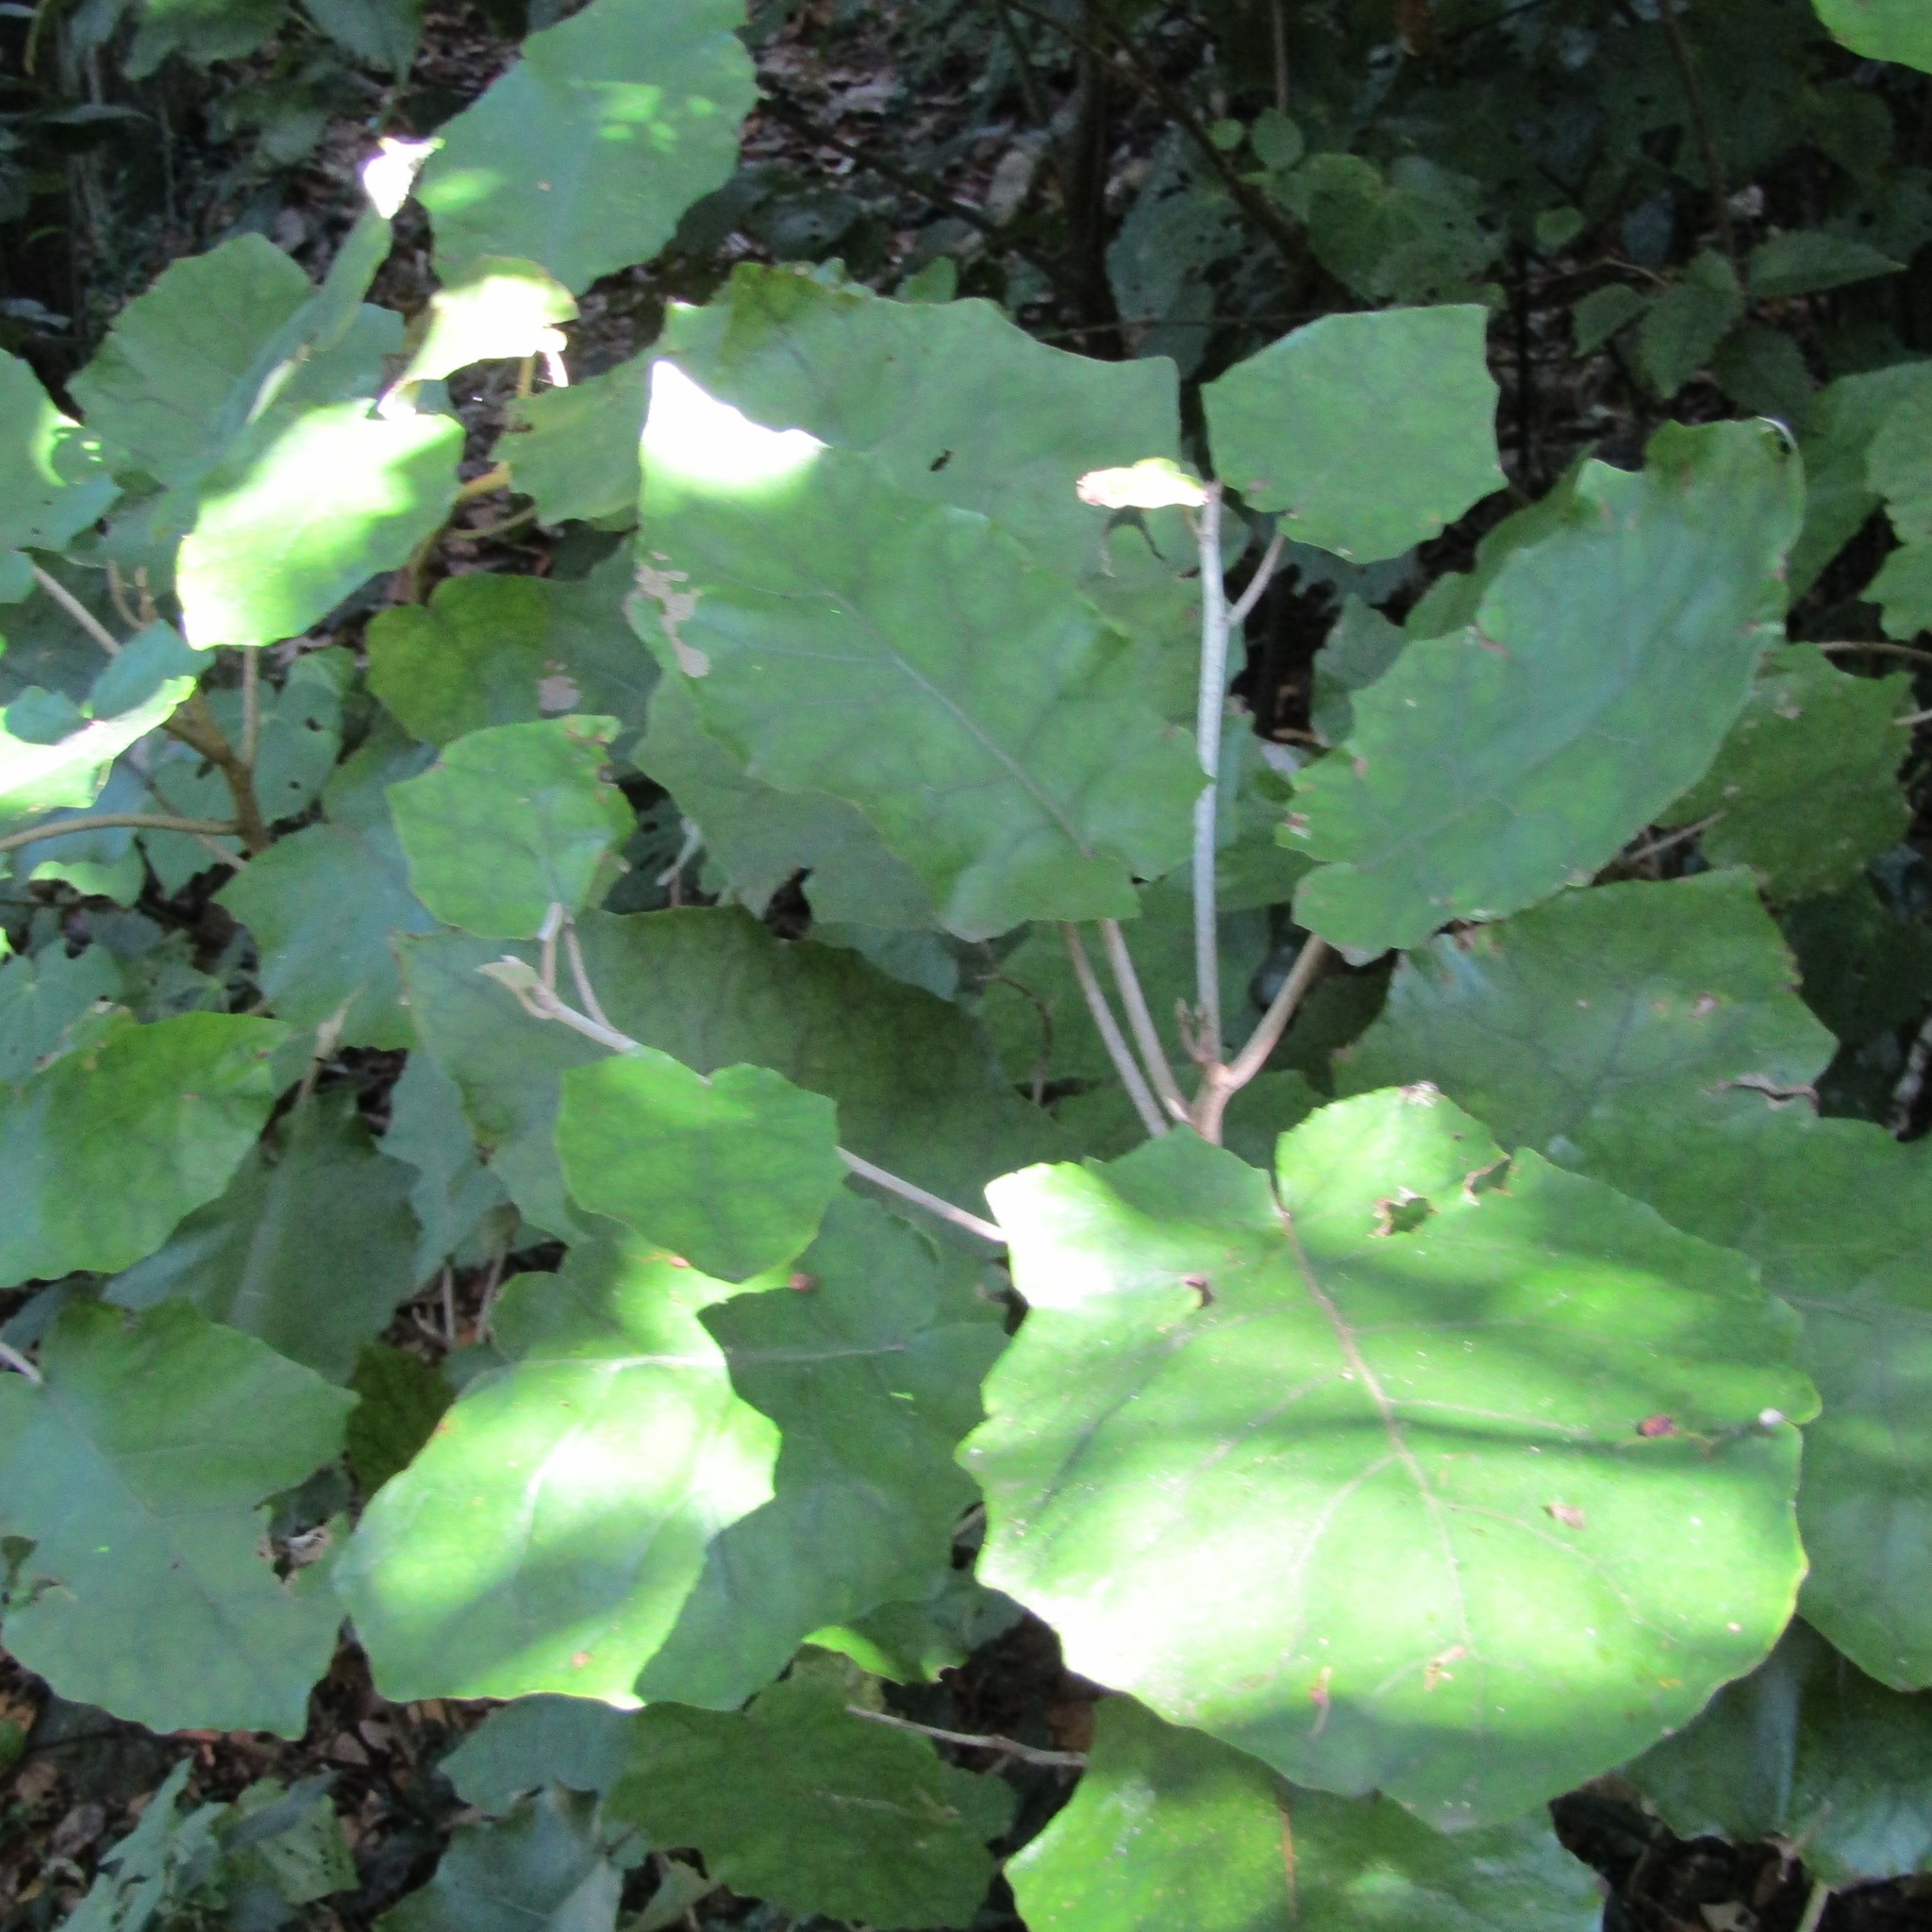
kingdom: Plantae
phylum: Tracheophyta
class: Magnoliopsida
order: Asterales
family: Asteraceae
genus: Brachyglottis
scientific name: Brachyglottis repanda
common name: Hedge ragwort
